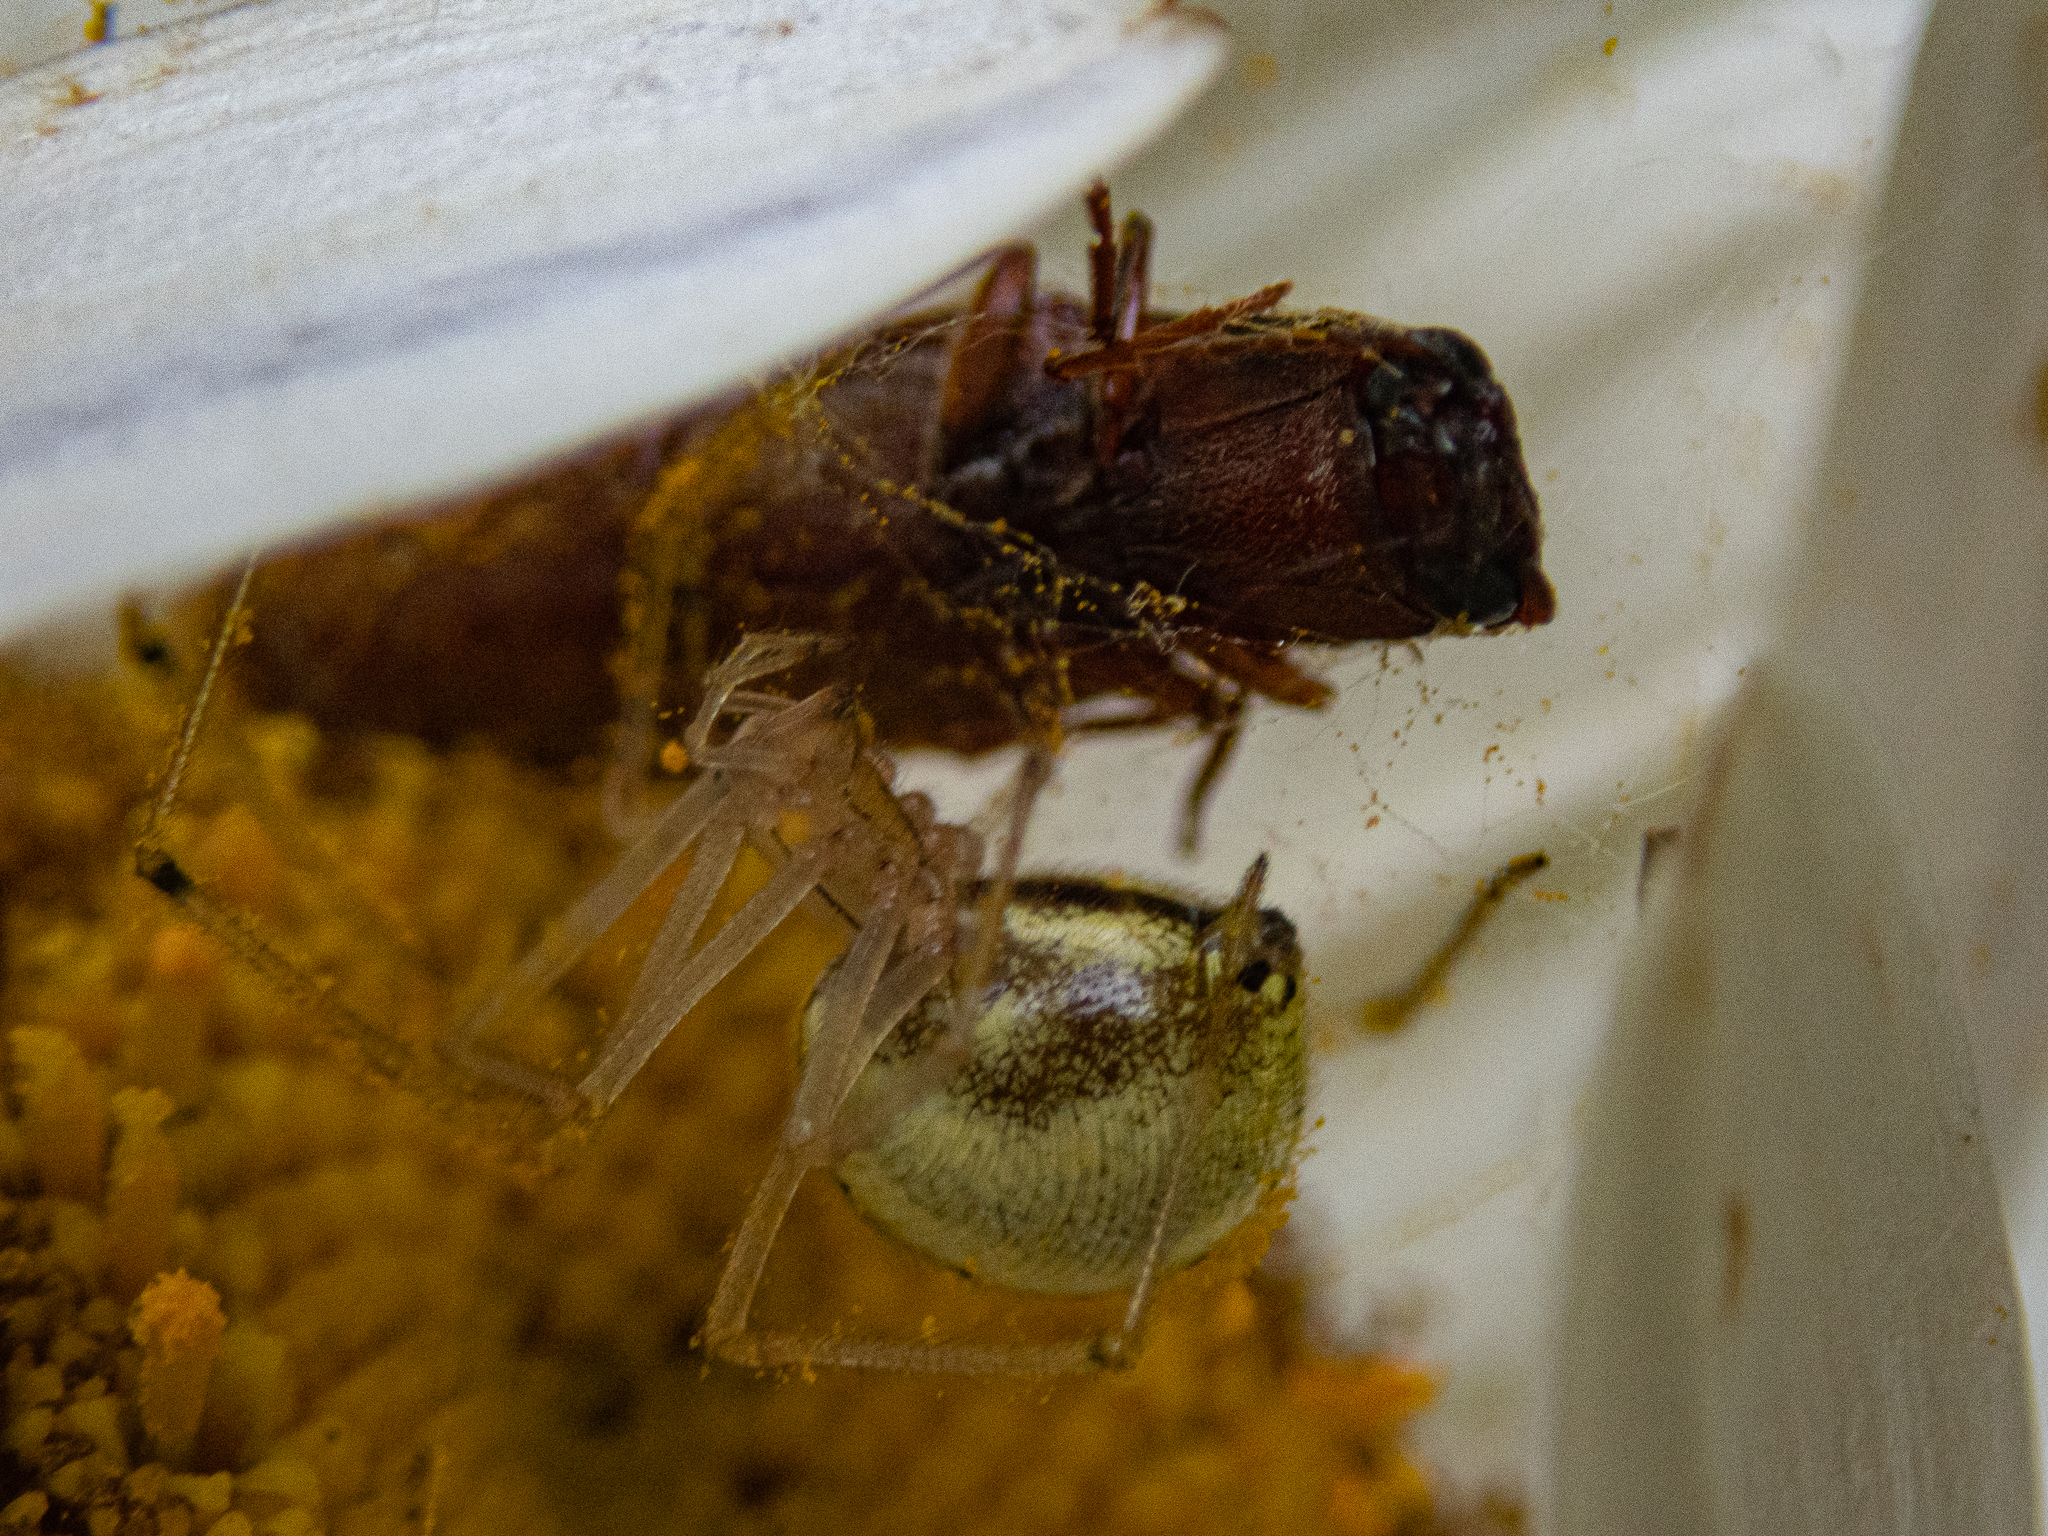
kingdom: Animalia
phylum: Arthropoda
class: Arachnida
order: Araneae
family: Theridiidae
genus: Enoplognatha
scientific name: Enoplognatha ovata
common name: Common candy-striped spider
